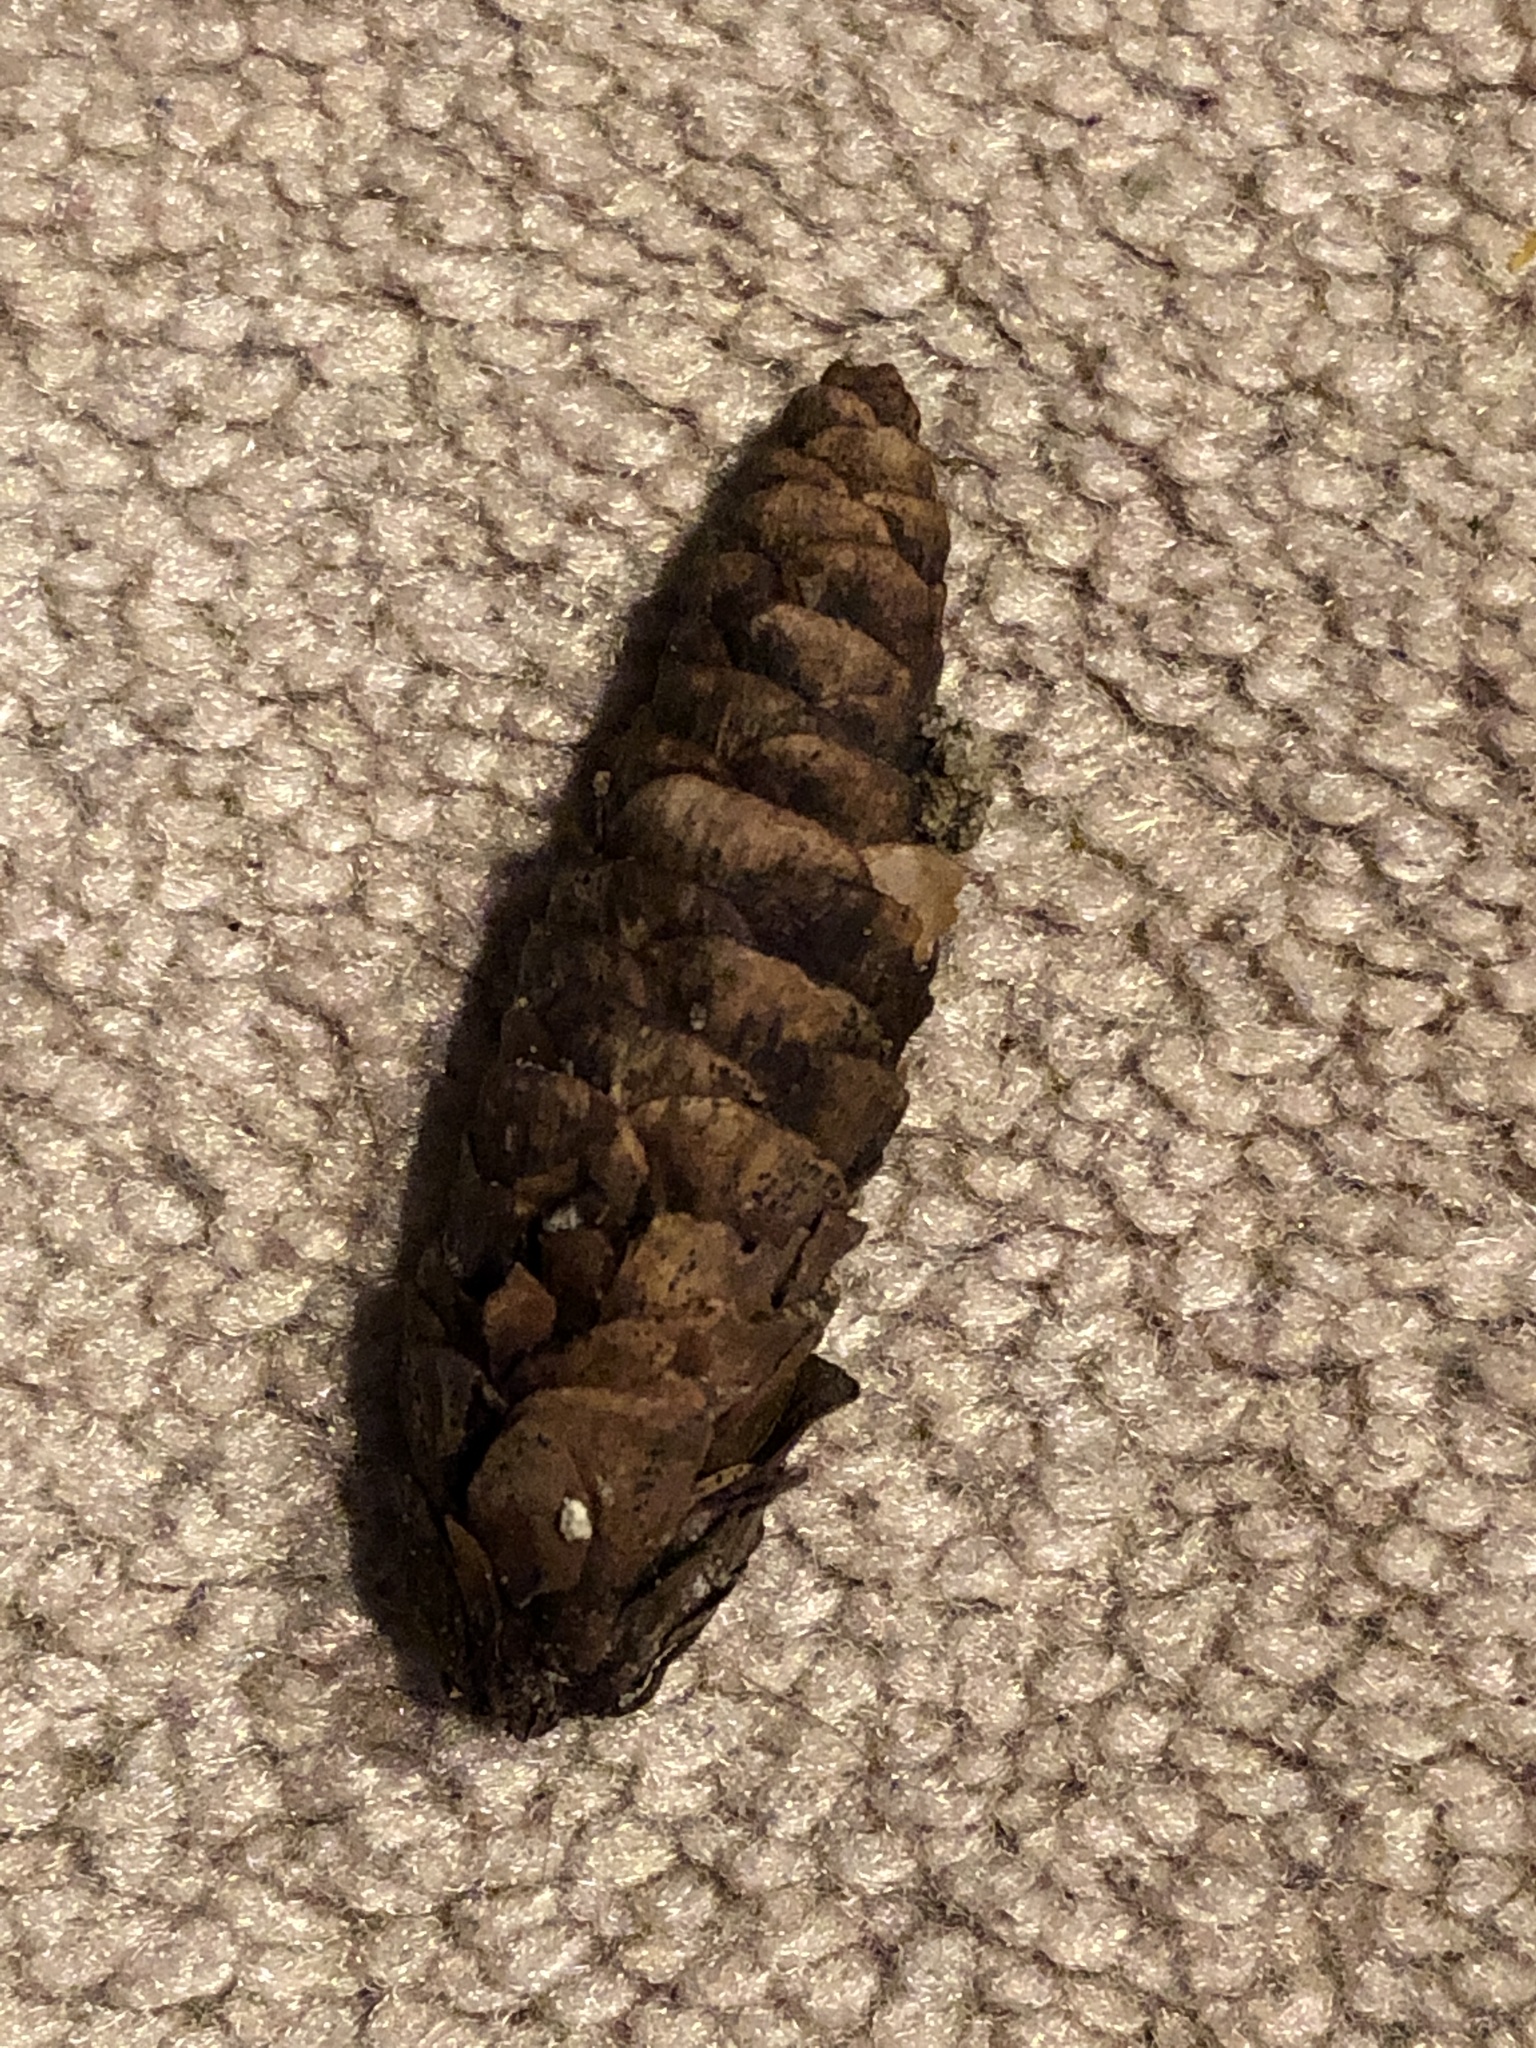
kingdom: Plantae
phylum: Tracheophyta
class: Pinopsida
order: Pinales
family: Pinaceae
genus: Picea
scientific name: Picea glauca
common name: White spruce
